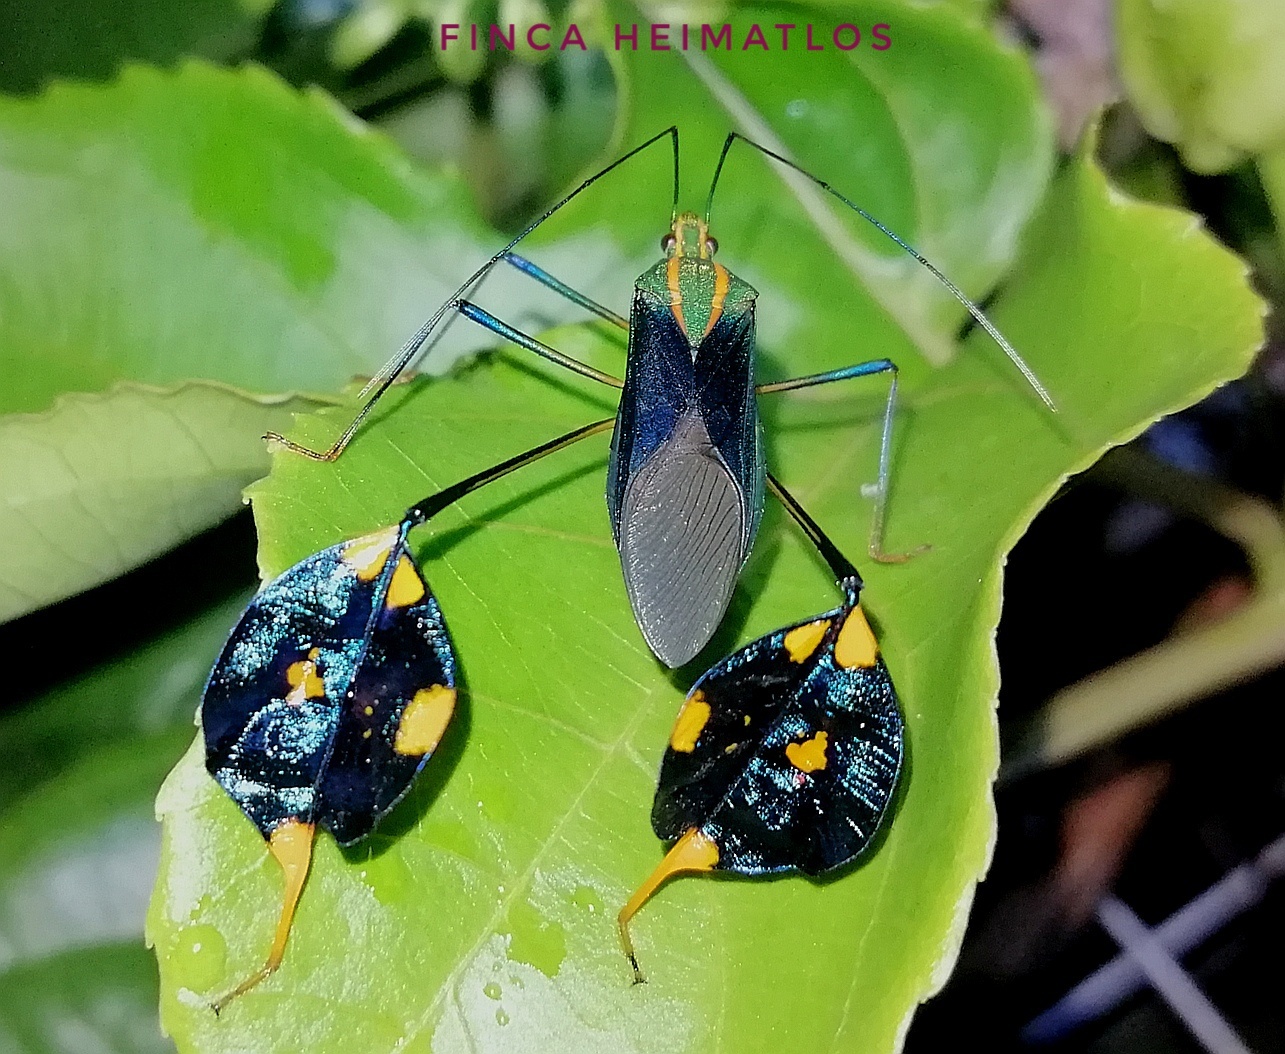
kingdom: Animalia
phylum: Arthropoda
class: Insecta
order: Hemiptera
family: Coreidae
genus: Diactor
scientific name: Diactor bilineatus
